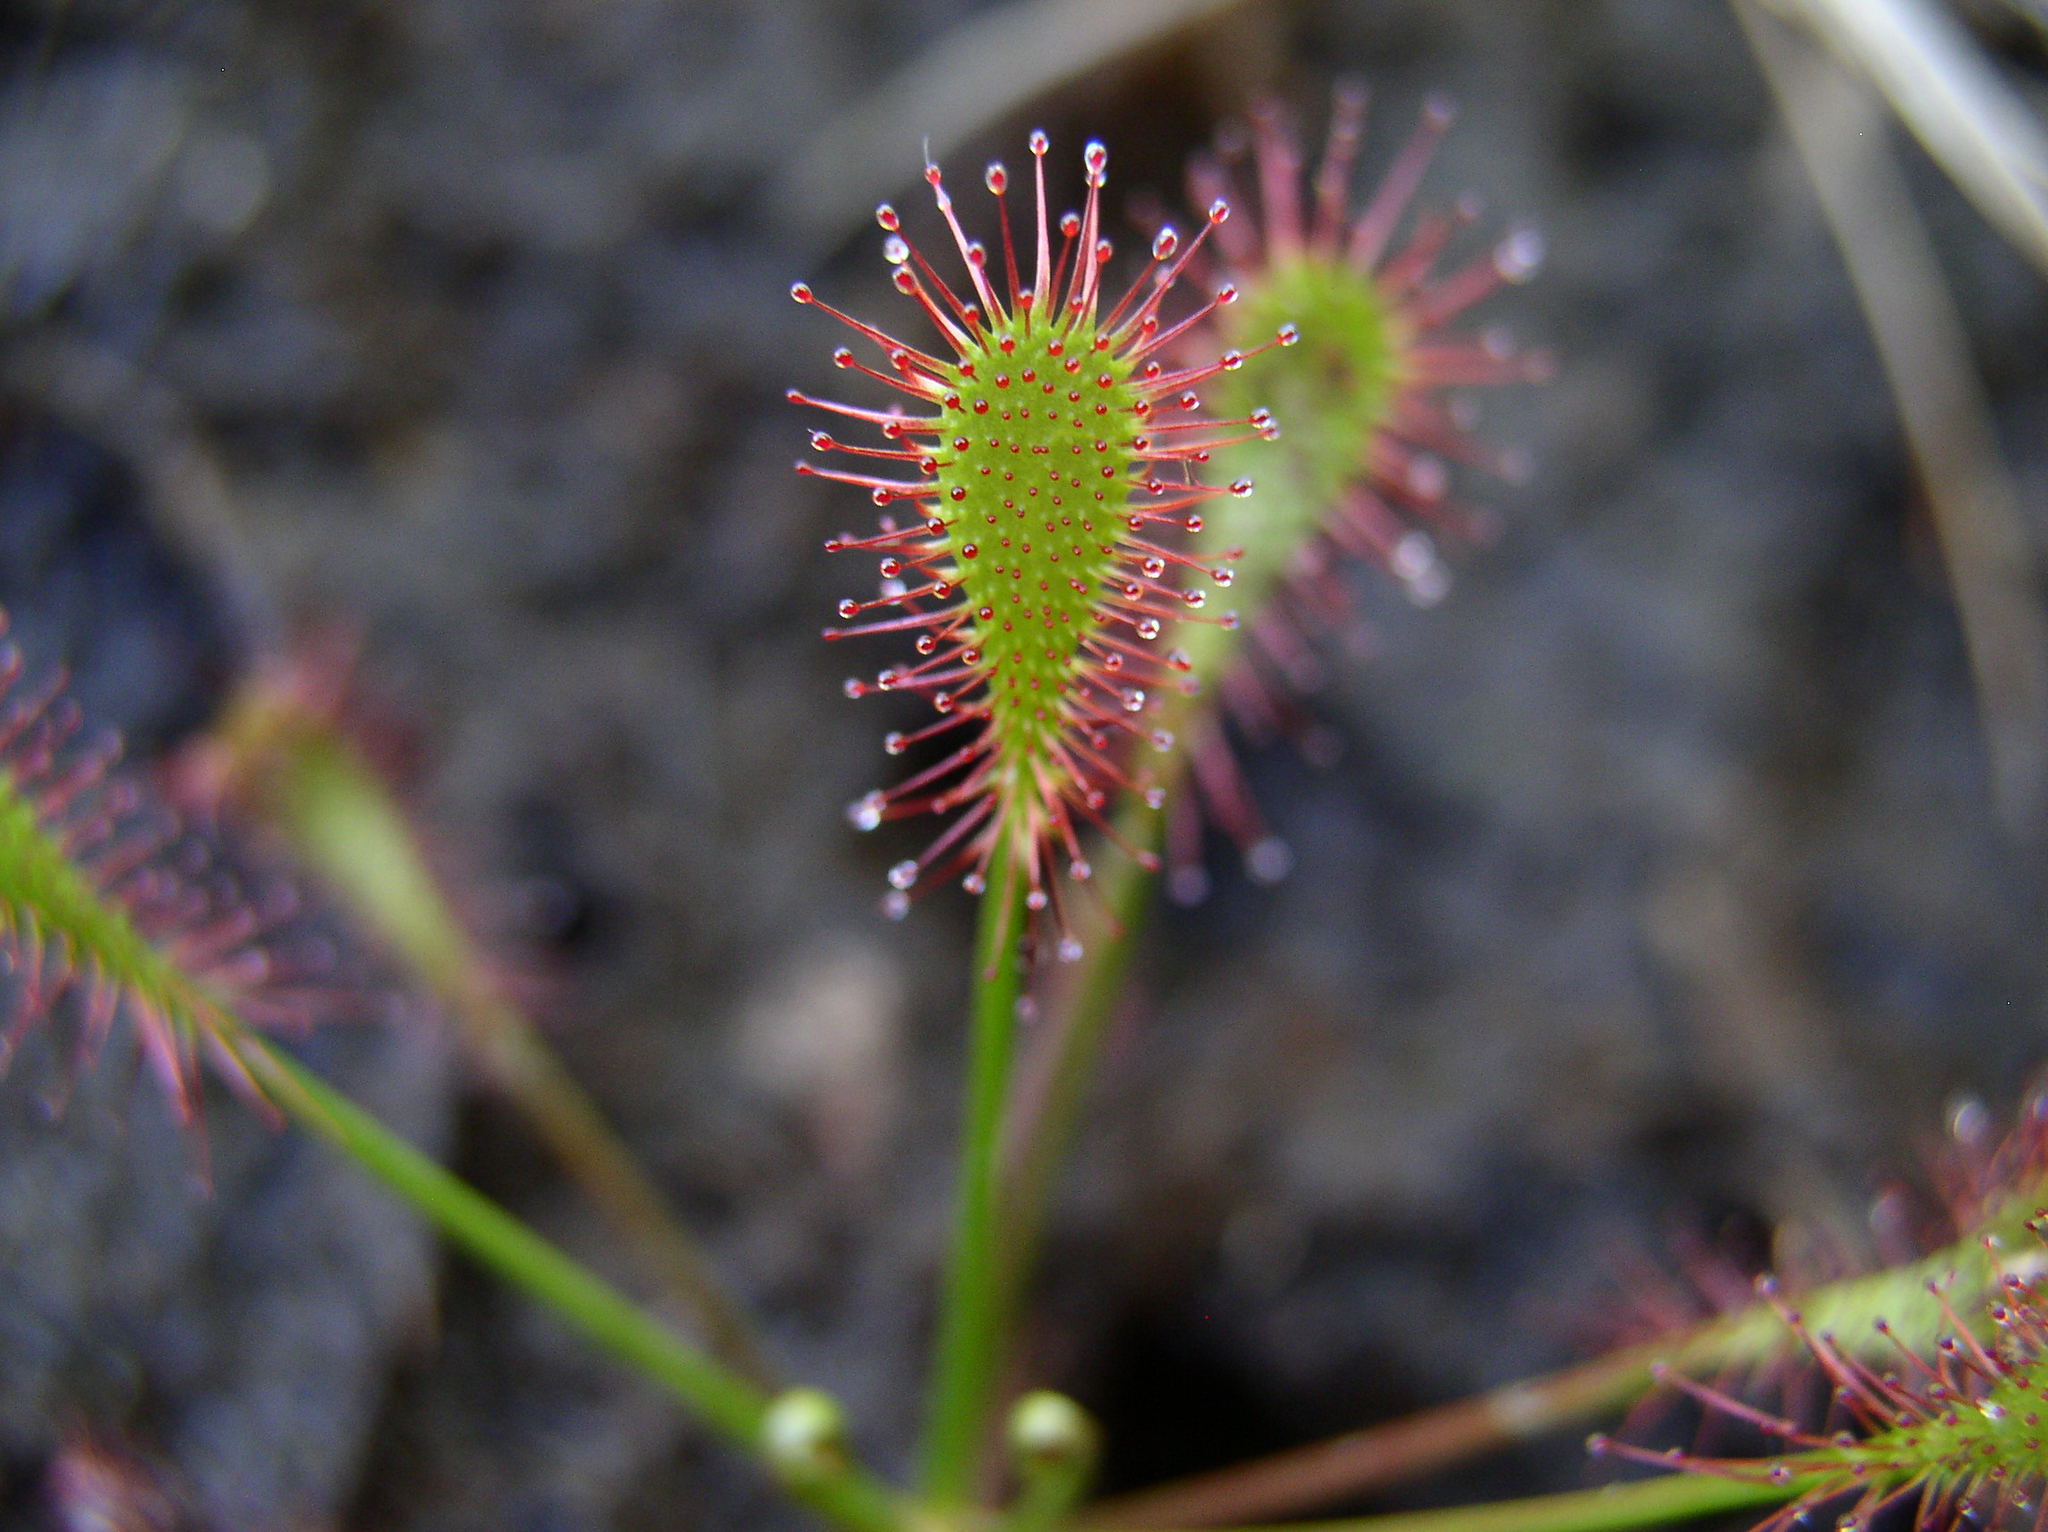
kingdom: Plantae
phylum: Tracheophyta
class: Magnoliopsida
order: Caryophyllales
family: Droseraceae
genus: Drosera
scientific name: Drosera intermedia
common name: Oblong-leaved sundew
